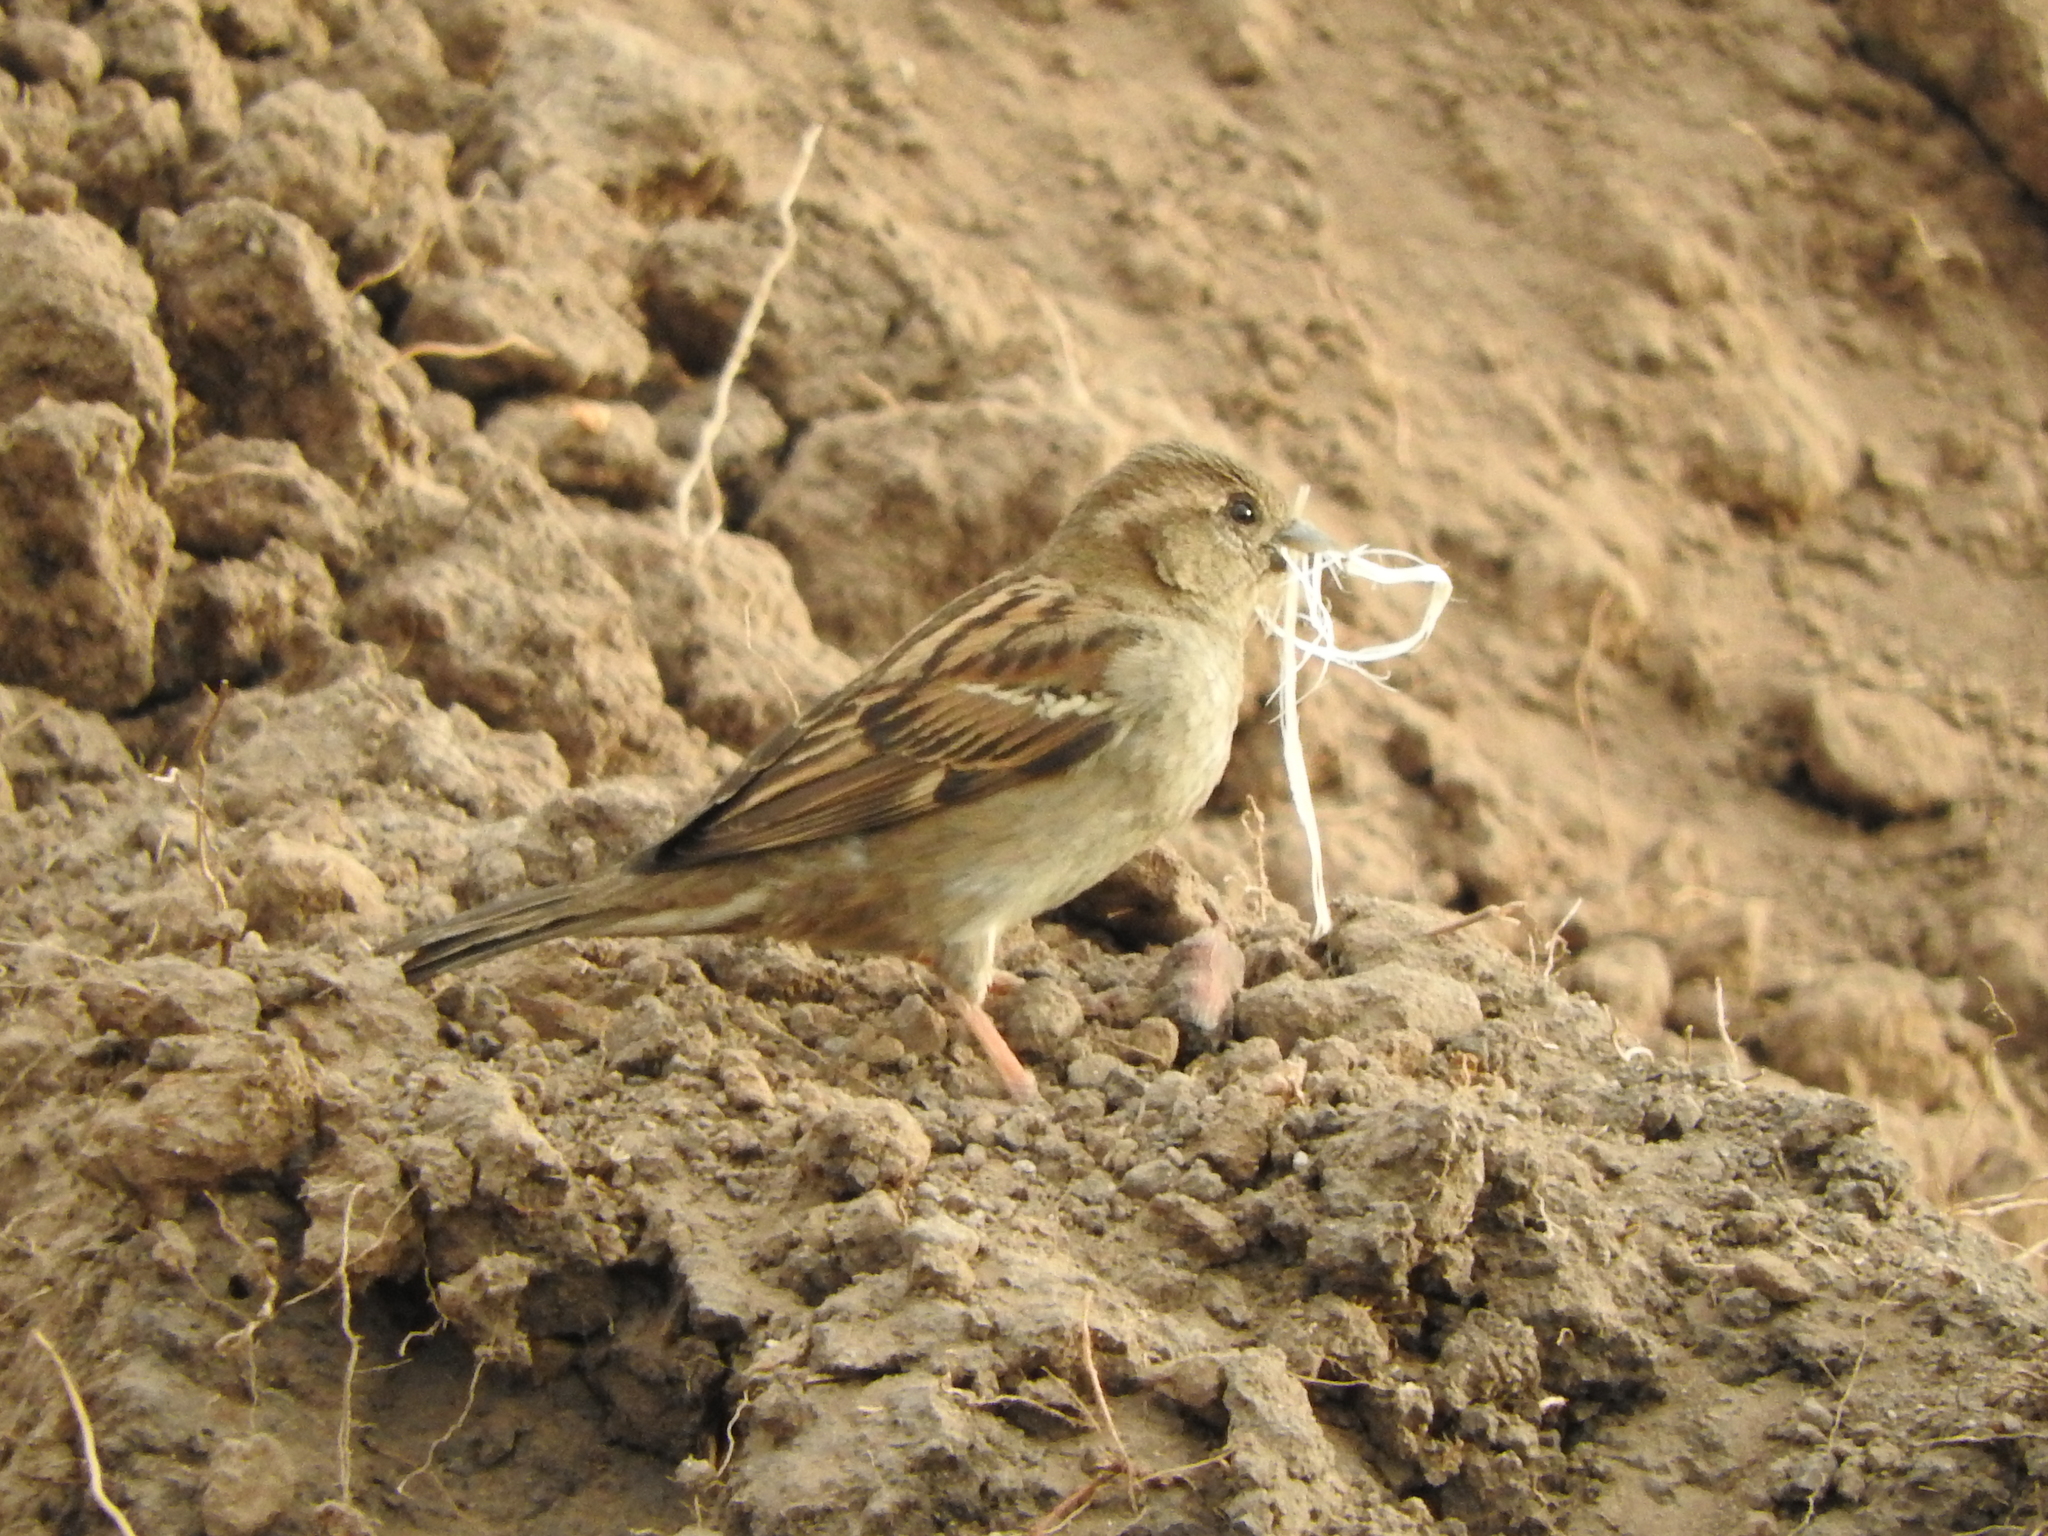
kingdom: Animalia
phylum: Chordata
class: Aves
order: Passeriformes
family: Passeridae
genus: Passer
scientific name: Passer domesticus
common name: House sparrow
